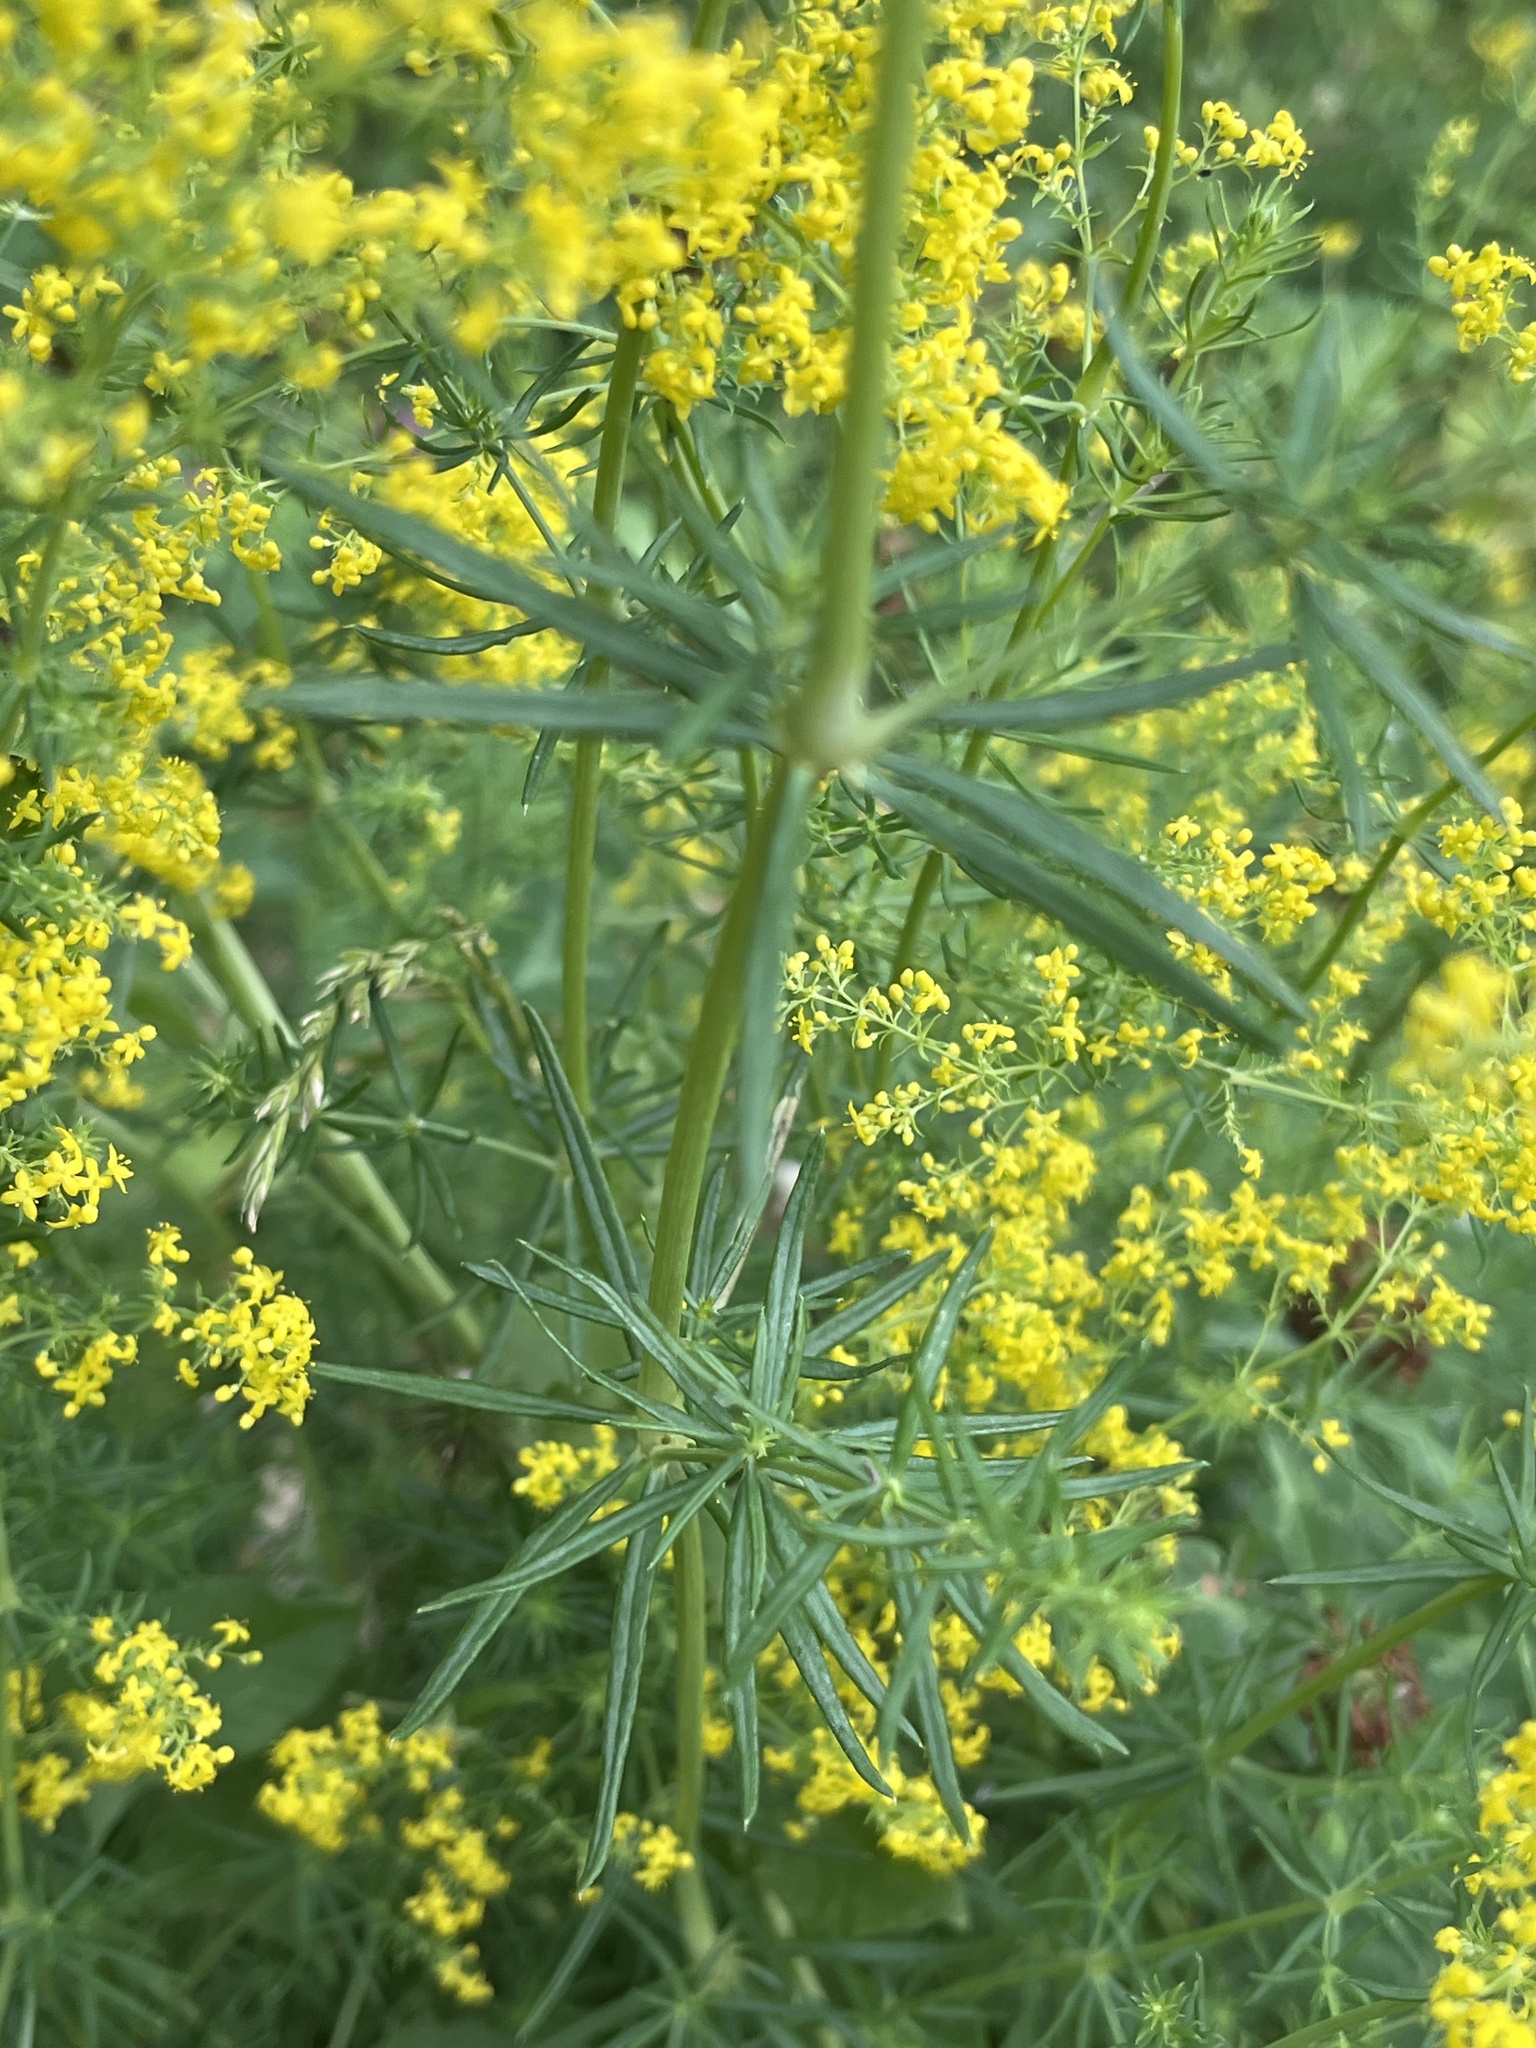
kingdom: Plantae
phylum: Tracheophyta
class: Magnoliopsida
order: Gentianales
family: Rubiaceae
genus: Galium
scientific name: Galium verum
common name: Lady's bedstraw
